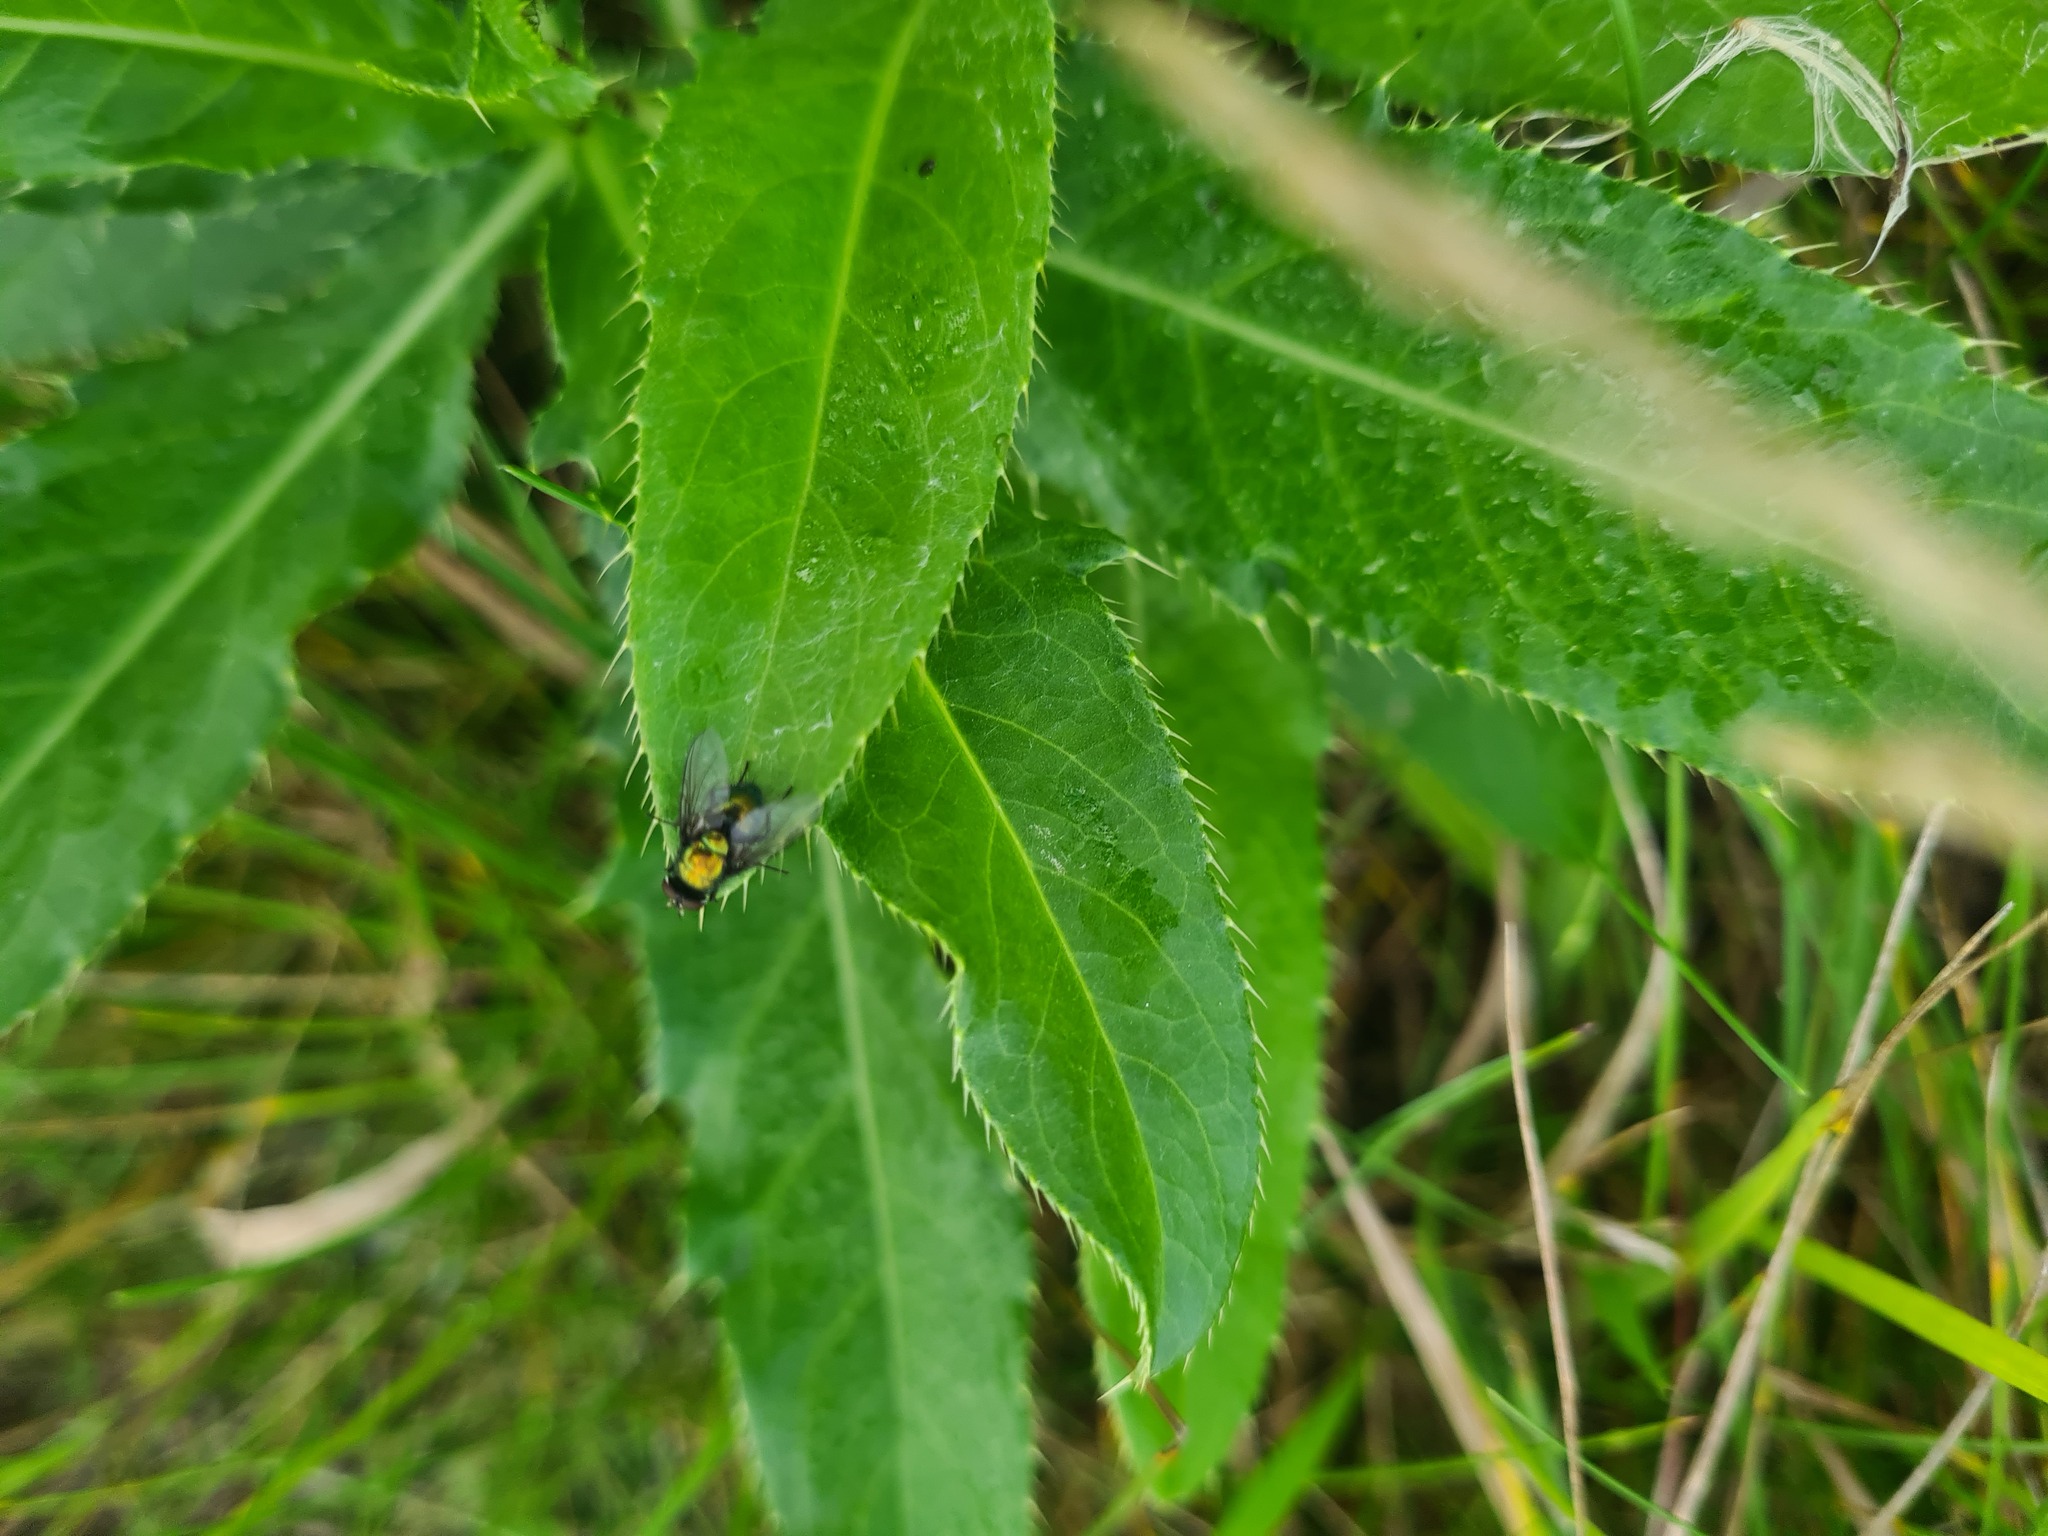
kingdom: Animalia
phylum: Arthropoda
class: Insecta
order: Diptera
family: Calliphoridae
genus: Lucilia
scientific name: Lucilia sericata
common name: Blow fly
